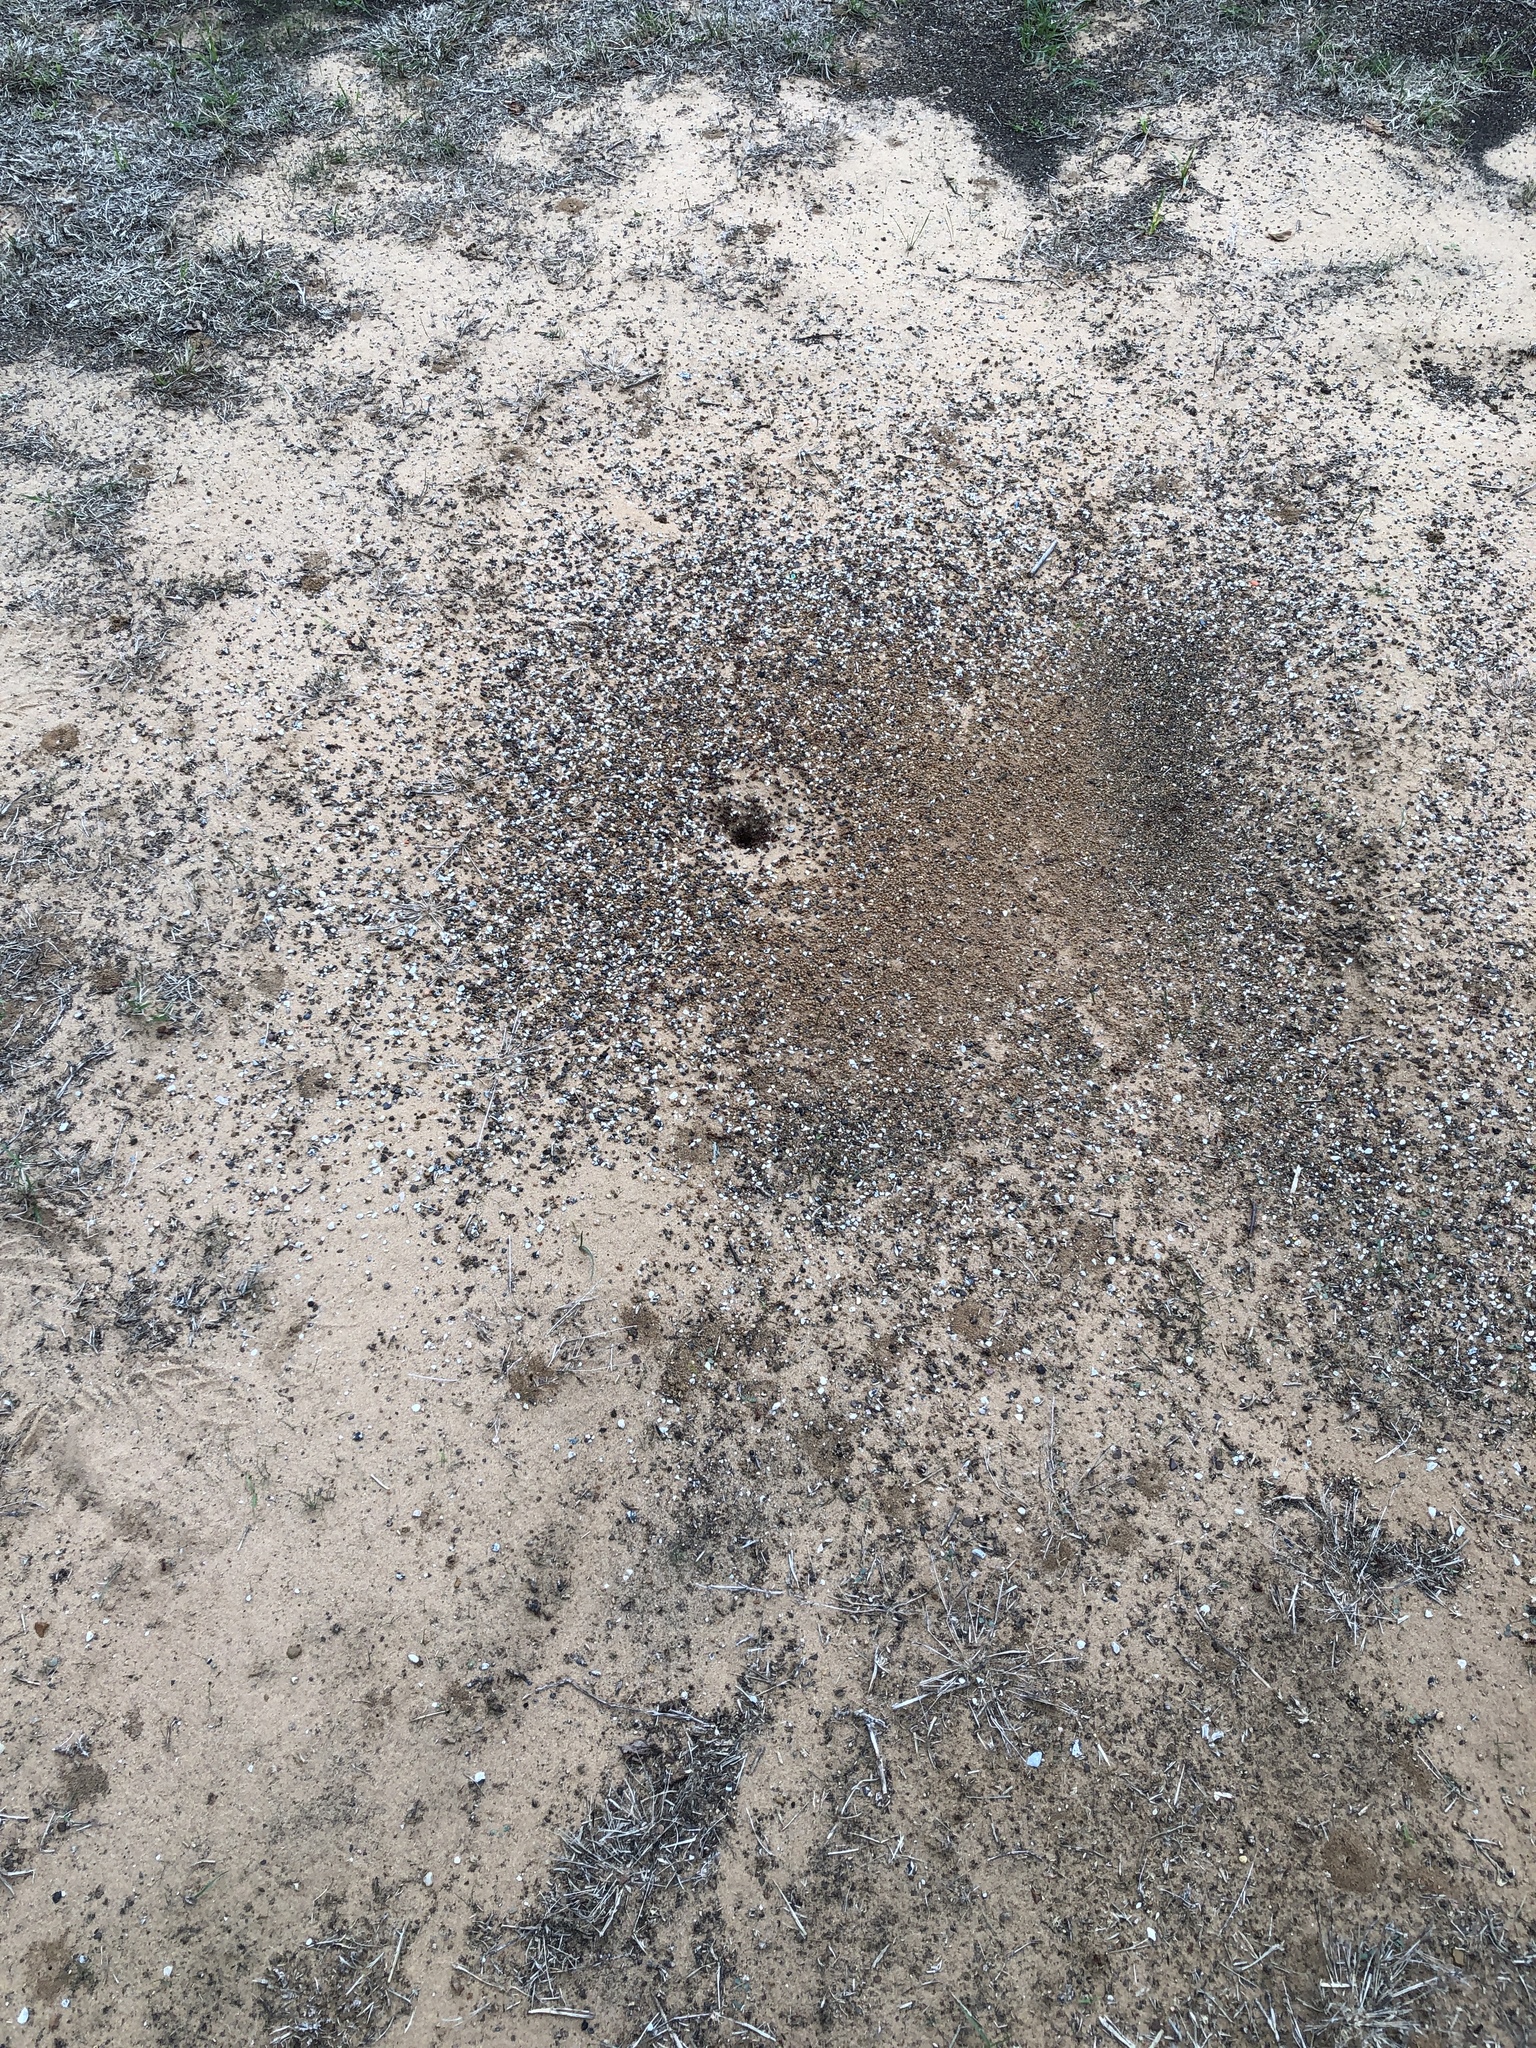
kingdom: Animalia
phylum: Arthropoda
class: Insecta
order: Hymenoptera
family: Formicidae
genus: Pogonomyrmex
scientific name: Pogonomyrmex barbatus
